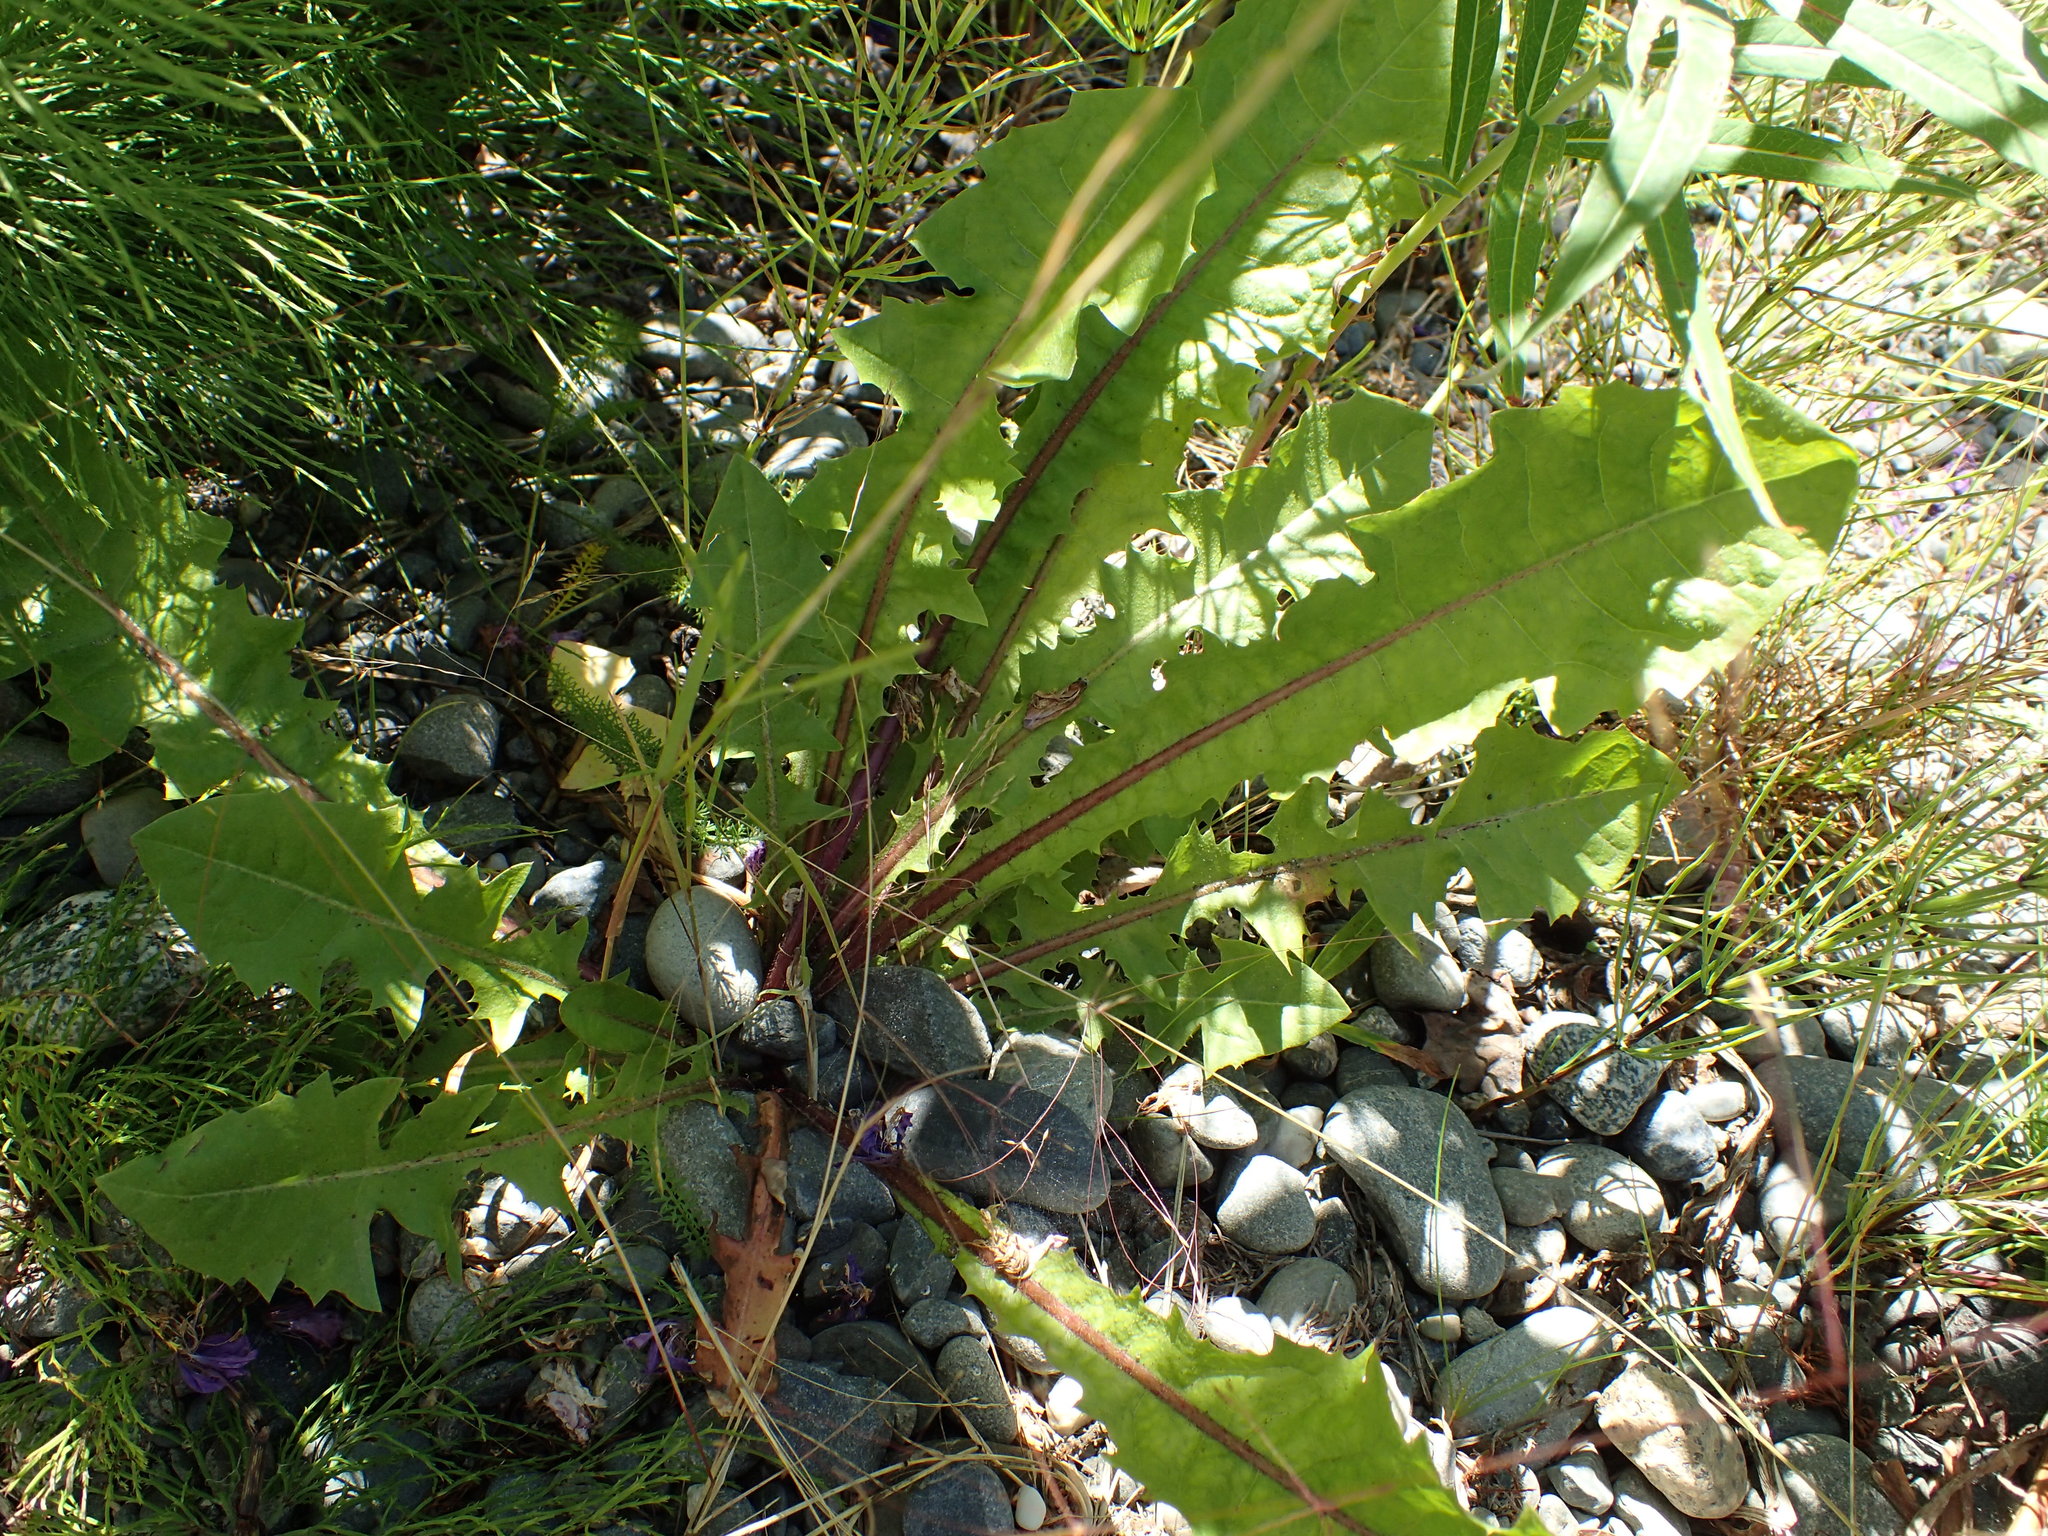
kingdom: Plantae
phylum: Tracheophyta
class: Magnoliopsida
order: Asterales
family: Asteraceae
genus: Taraxacum
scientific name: Taraxacum officinale
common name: Common dandelion
